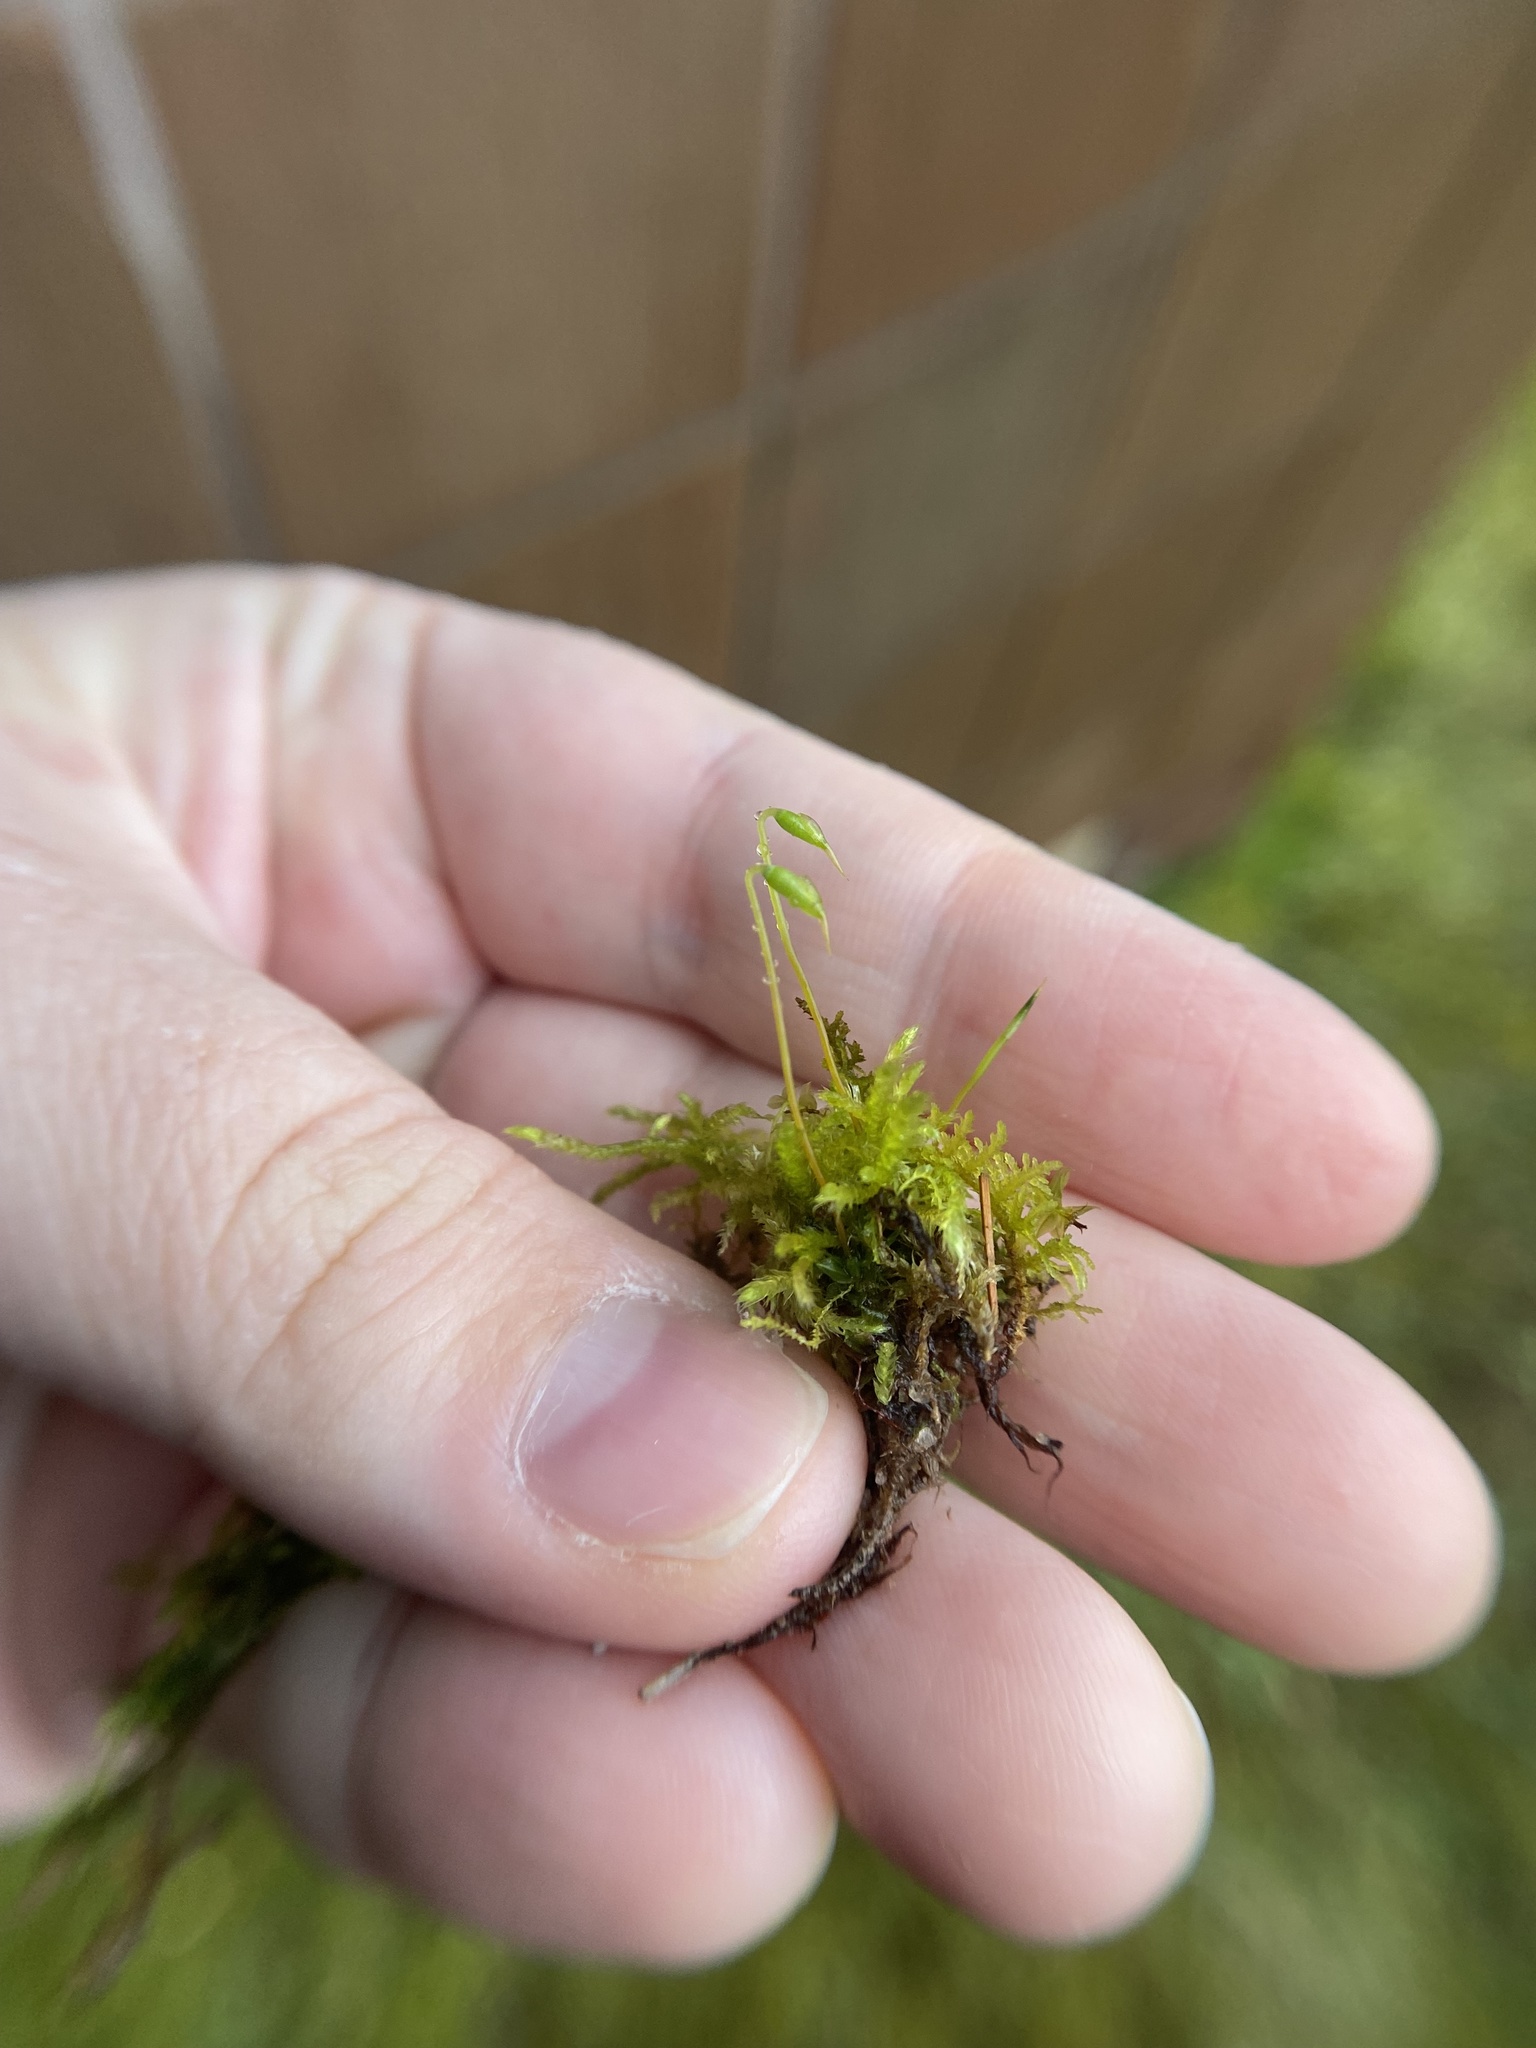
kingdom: Plantae
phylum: Bryophyta
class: Bryopsida
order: Bryales
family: Mniaceae
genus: Plagiomnium
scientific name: Plagiomnium cuspidatum
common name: Woodsy leafy moss
